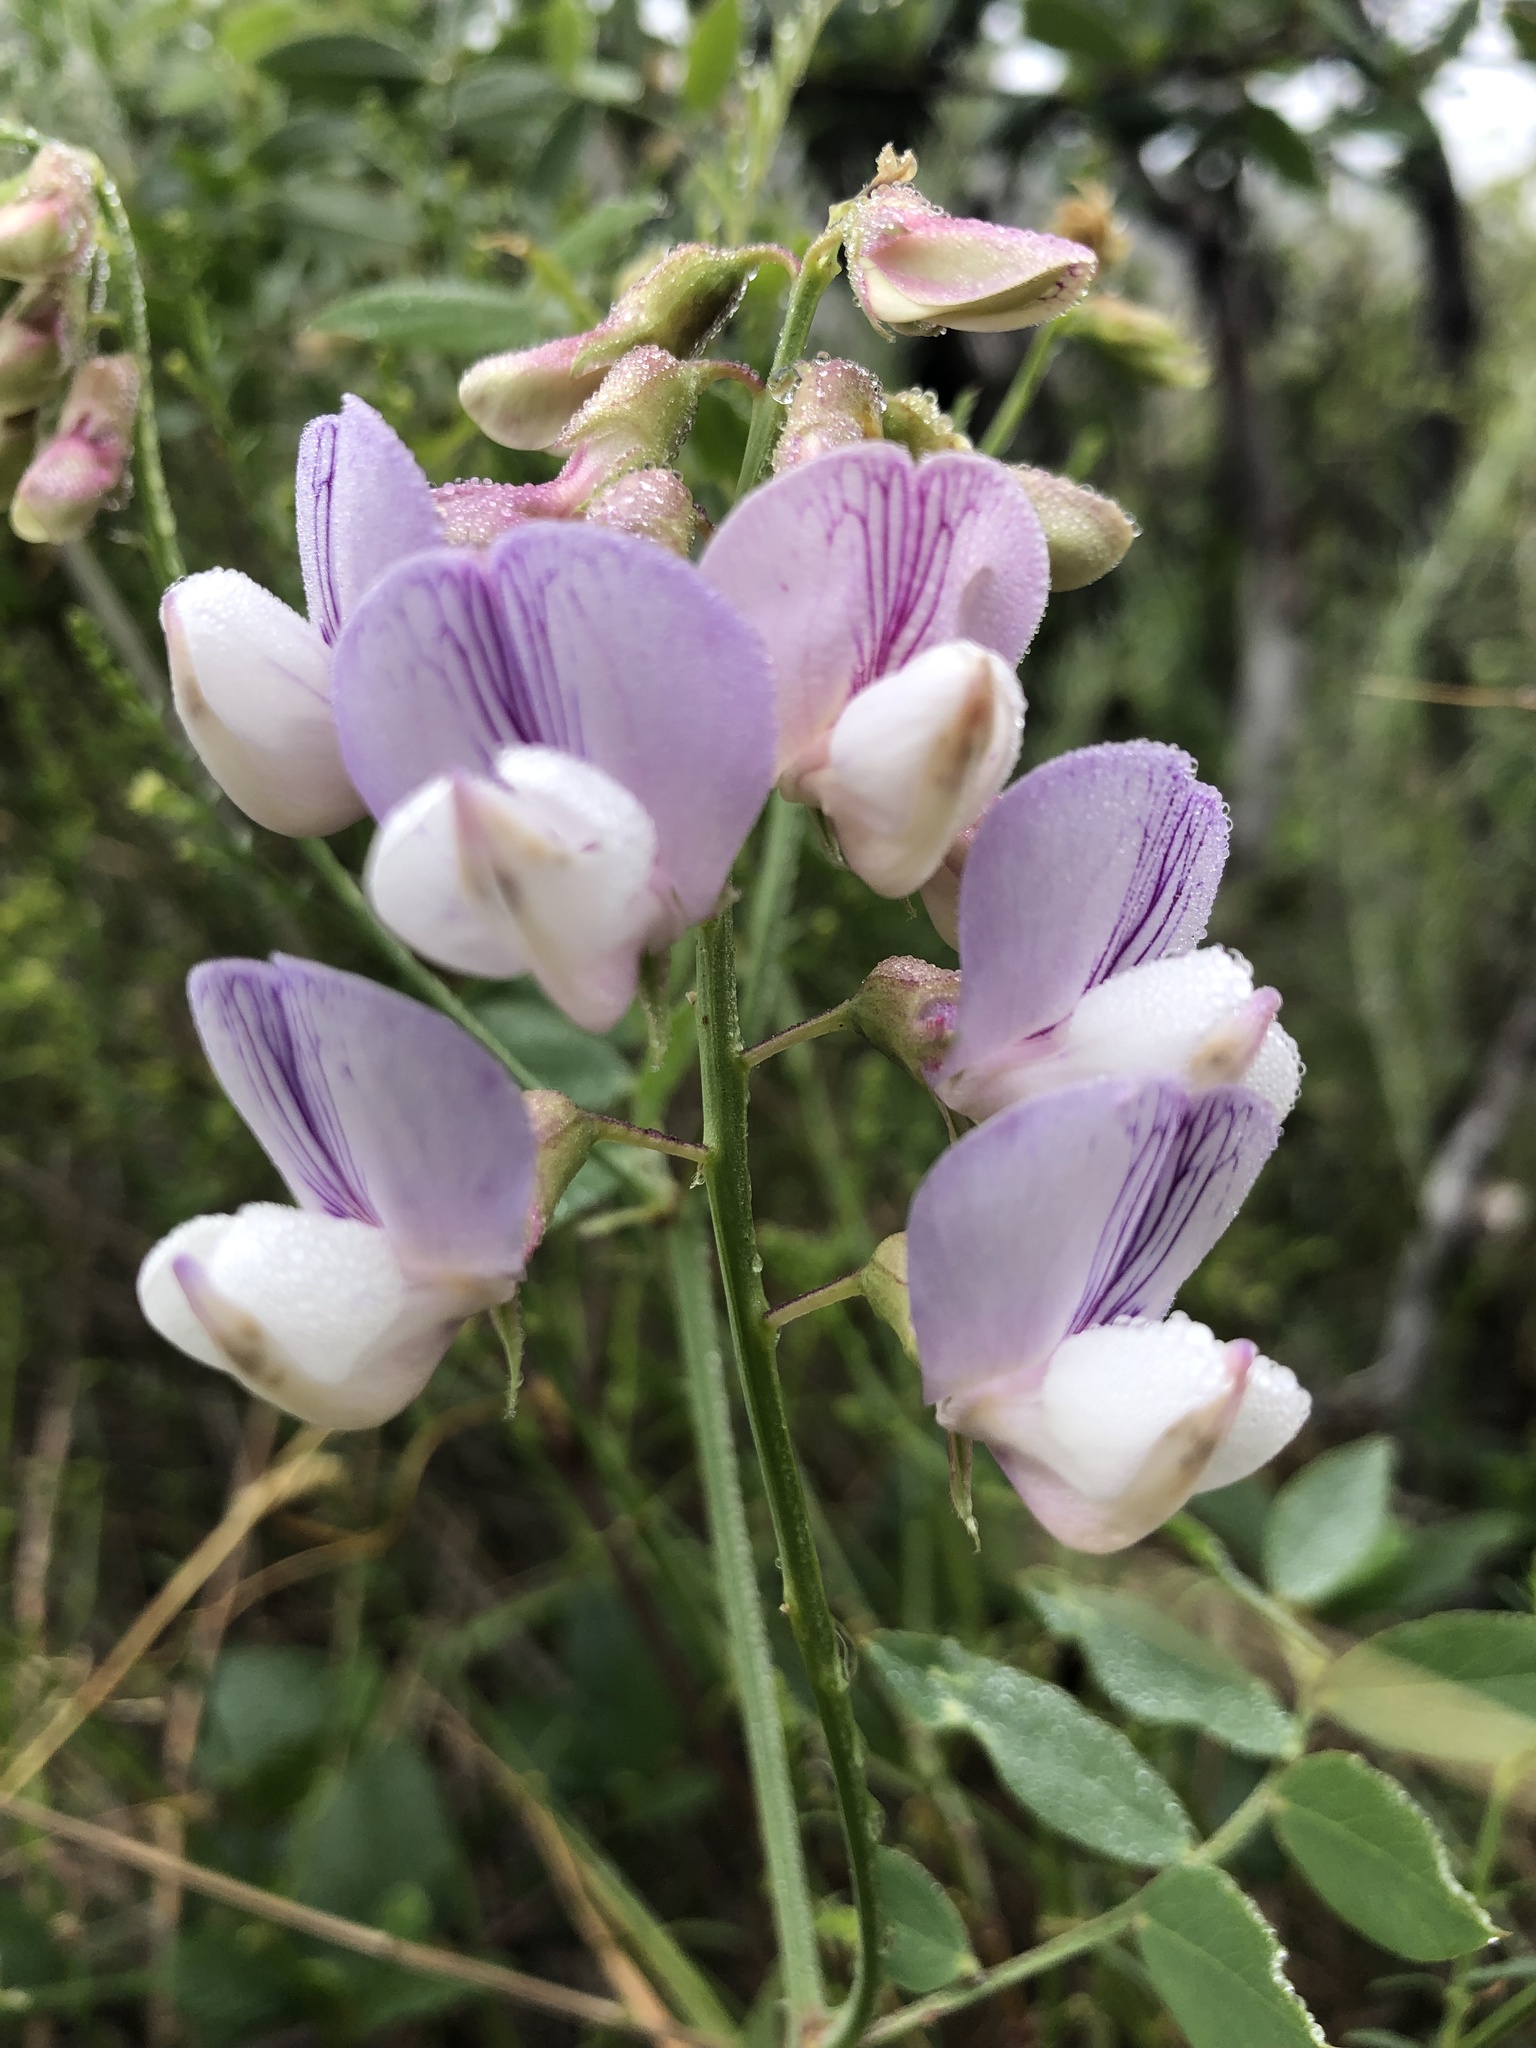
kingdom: Plantae
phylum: Tracheophyta
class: Magnoliopsida
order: Fabales
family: Fabaceae
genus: Lathyrus
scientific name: Lathyrus vestitus
